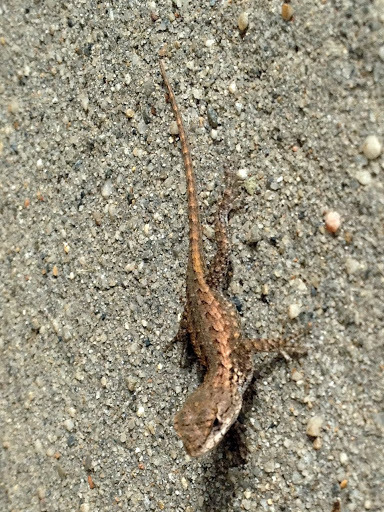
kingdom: Animalia
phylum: Chordata
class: Squamata
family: Phrynosomatidae
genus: Sceloporus
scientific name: Sceloporus occidentalis
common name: Western fence lizard
